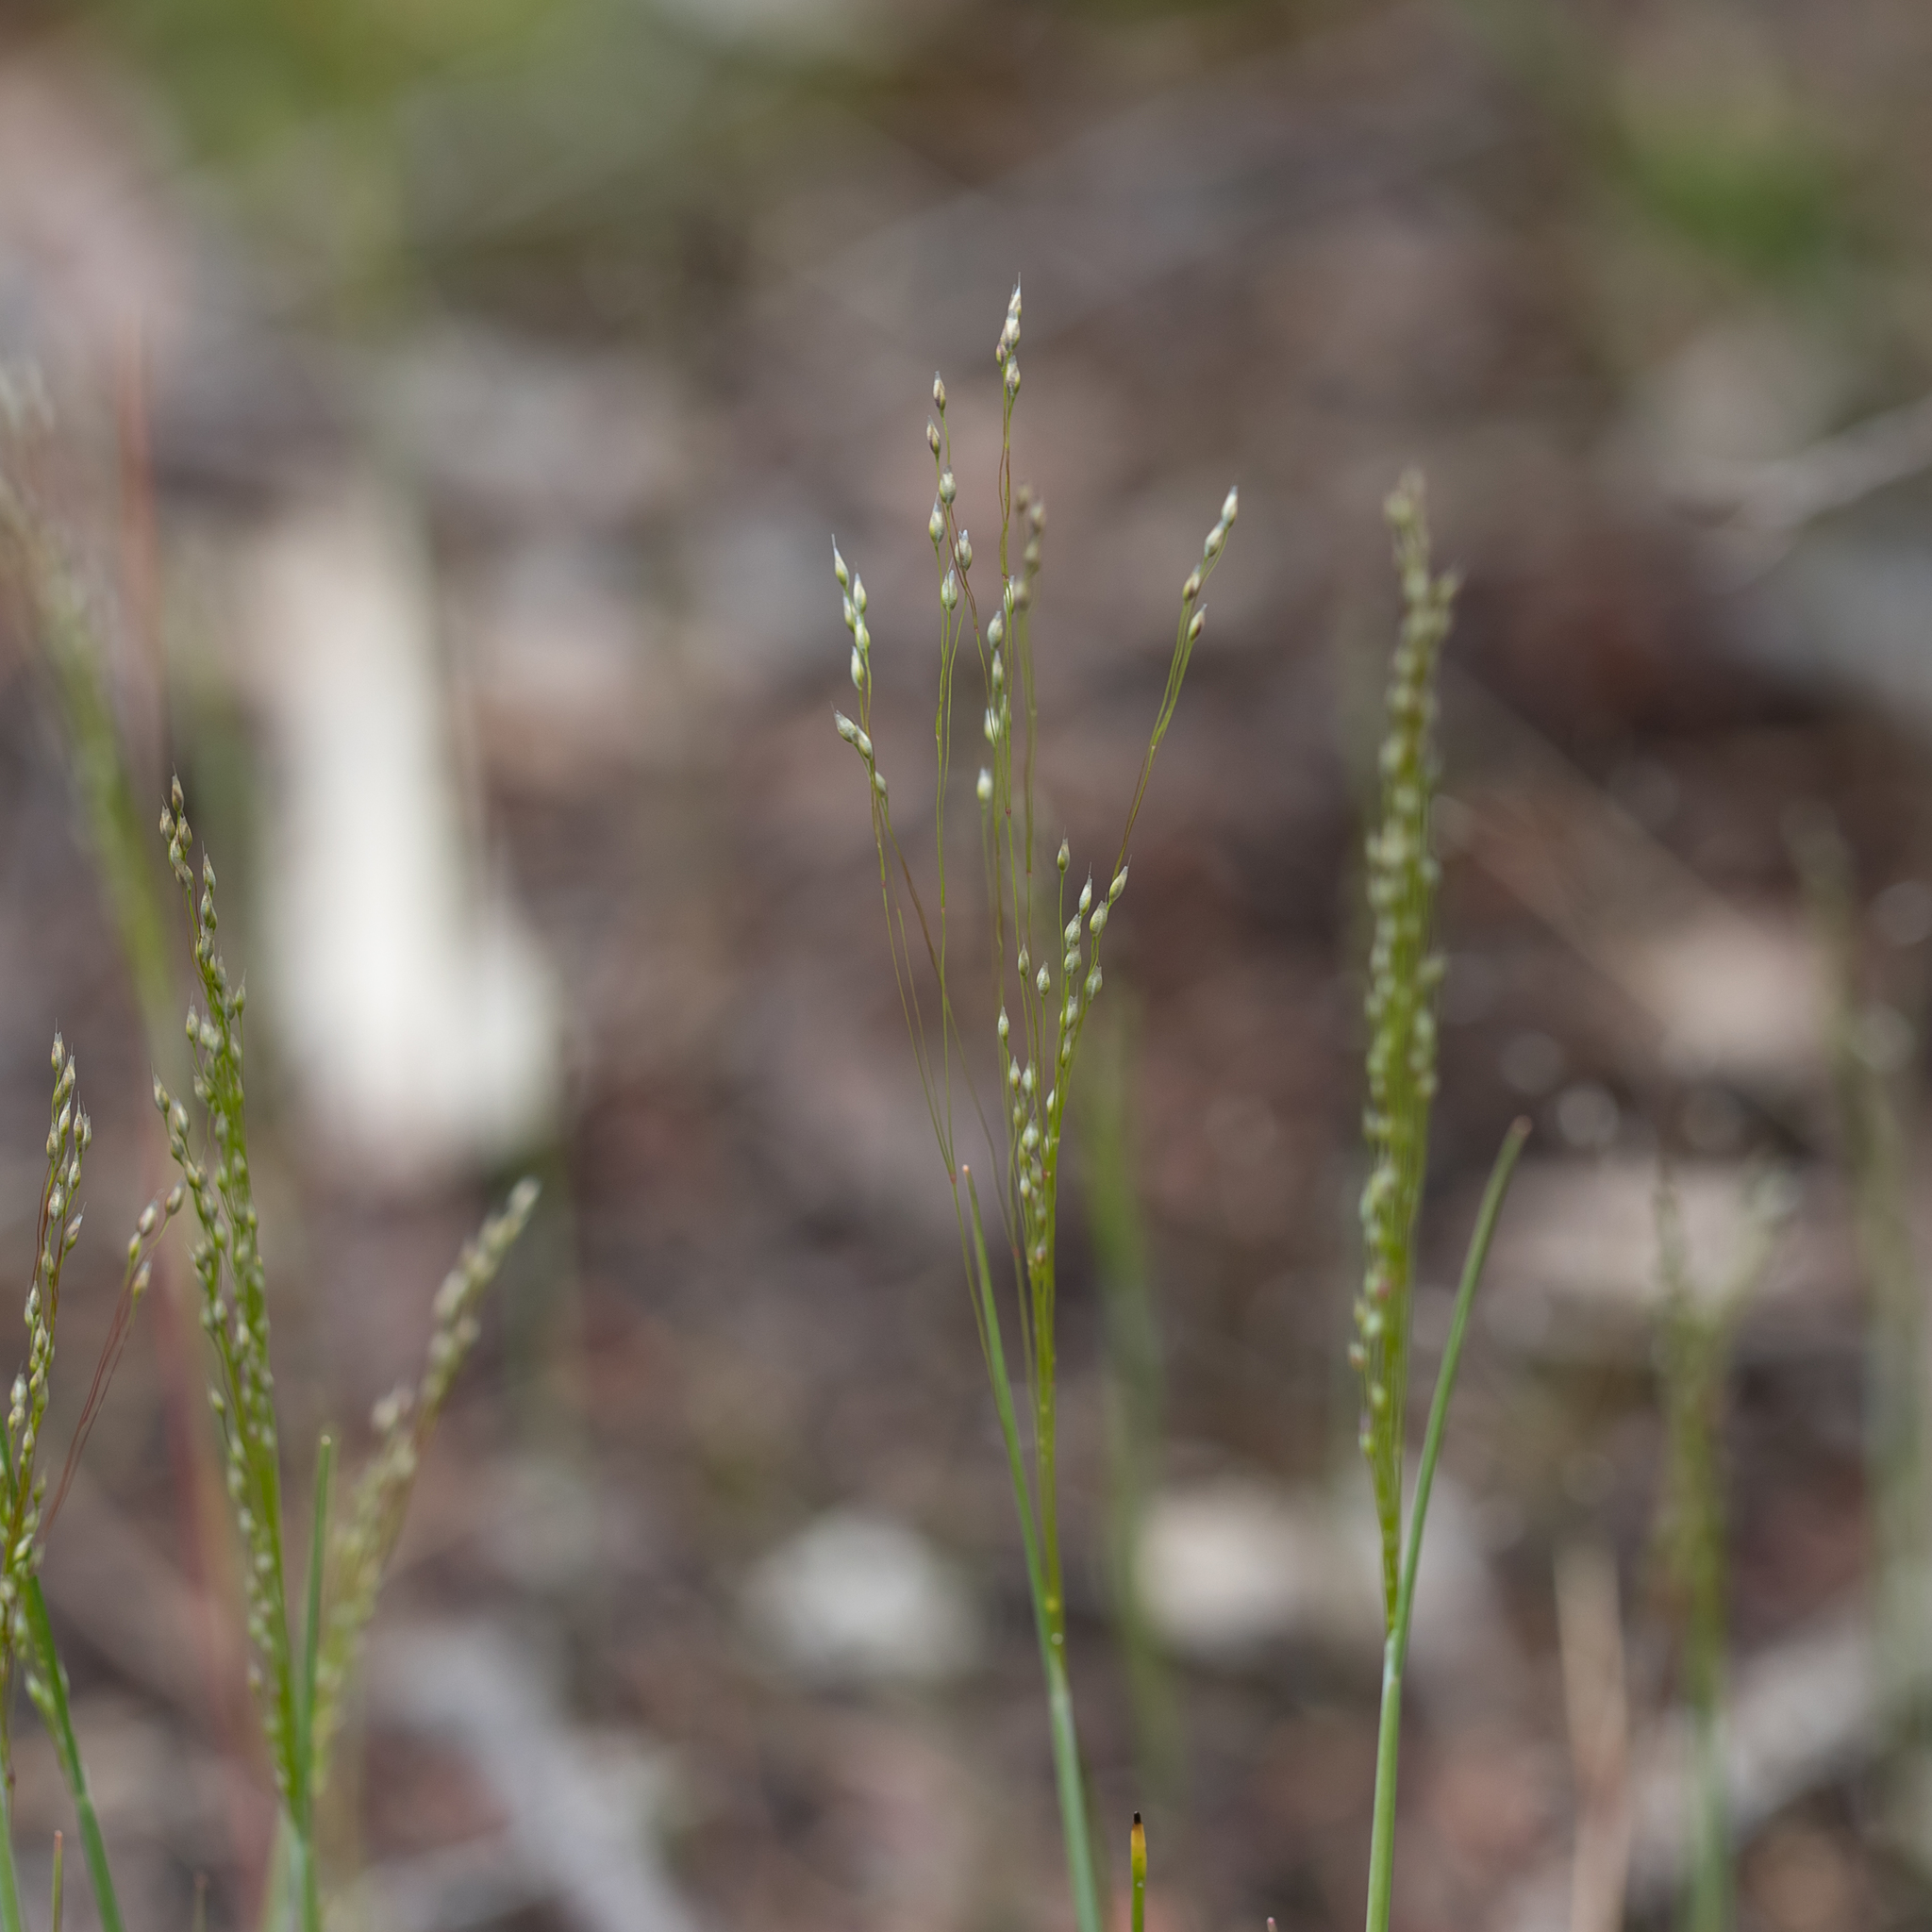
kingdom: Plantae
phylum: Tracheophyta
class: Liliopsida
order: Poales
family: Poaceae
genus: Aira
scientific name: Aira elegans
